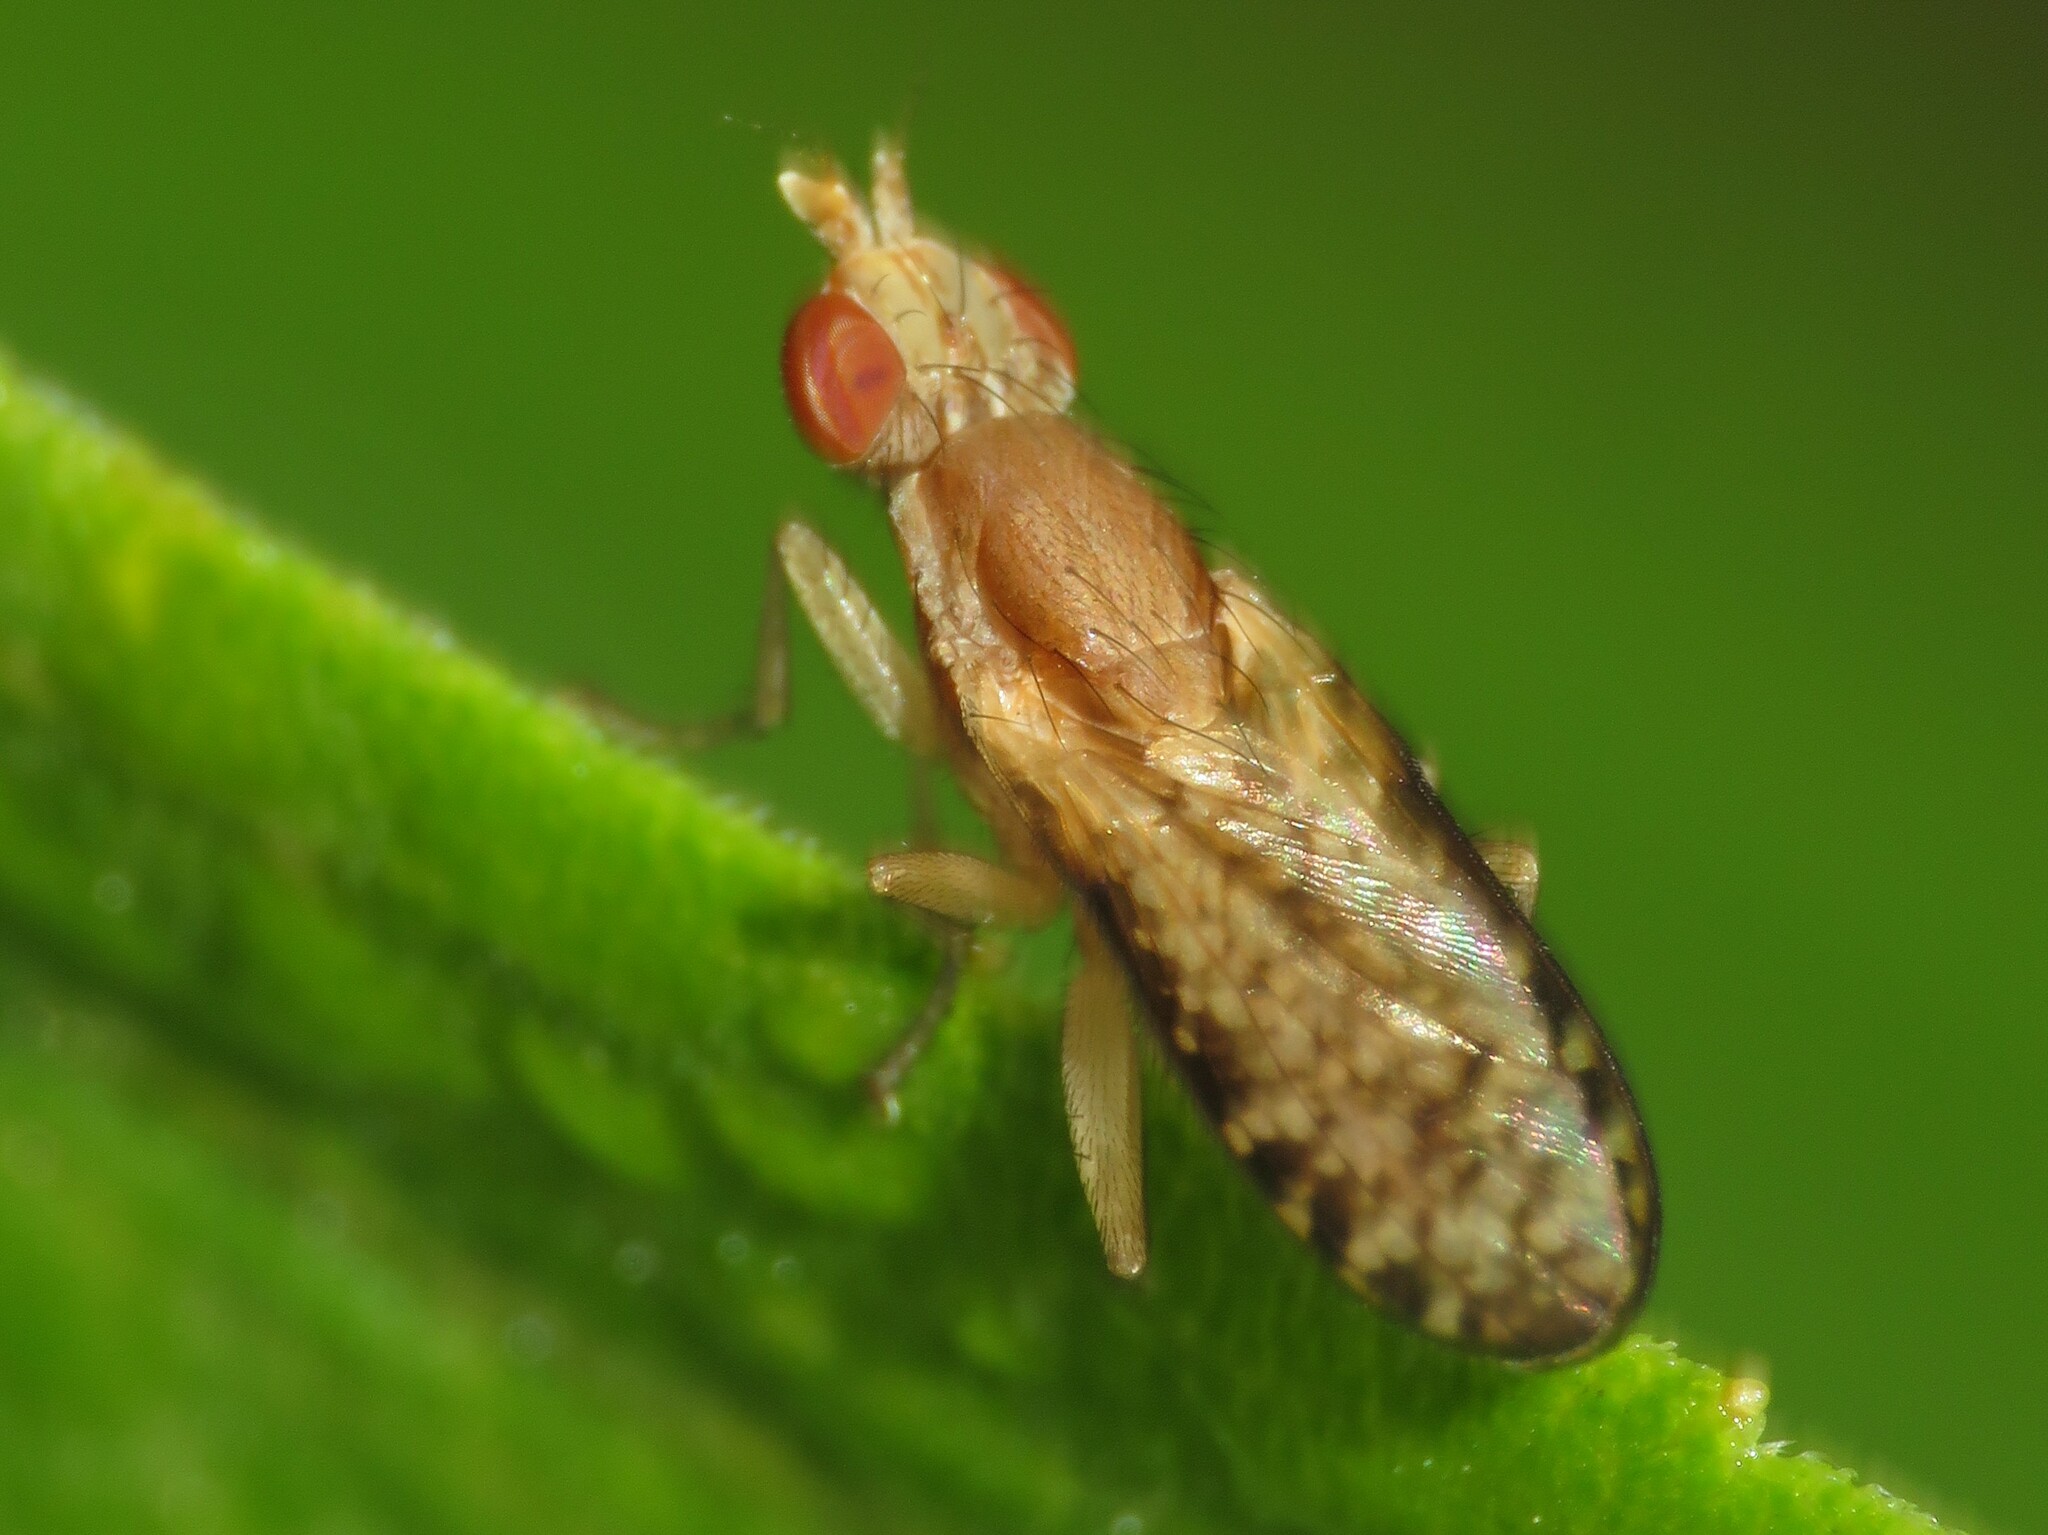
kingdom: Animalia
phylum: Arthropoda
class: Insecta
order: Diptera
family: Sciomyzidae
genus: Trypetoptera
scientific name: Trypetoptera canadensis
